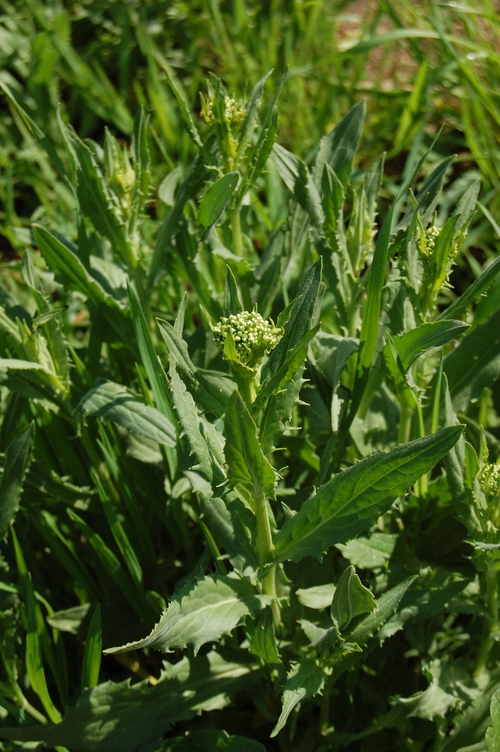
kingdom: Plantae
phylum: Tracheophyta
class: Magnoliopsida
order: Brassicales
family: Brassicaceae
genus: Lepidium
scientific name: Lepidium draba
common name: Hoary cress
